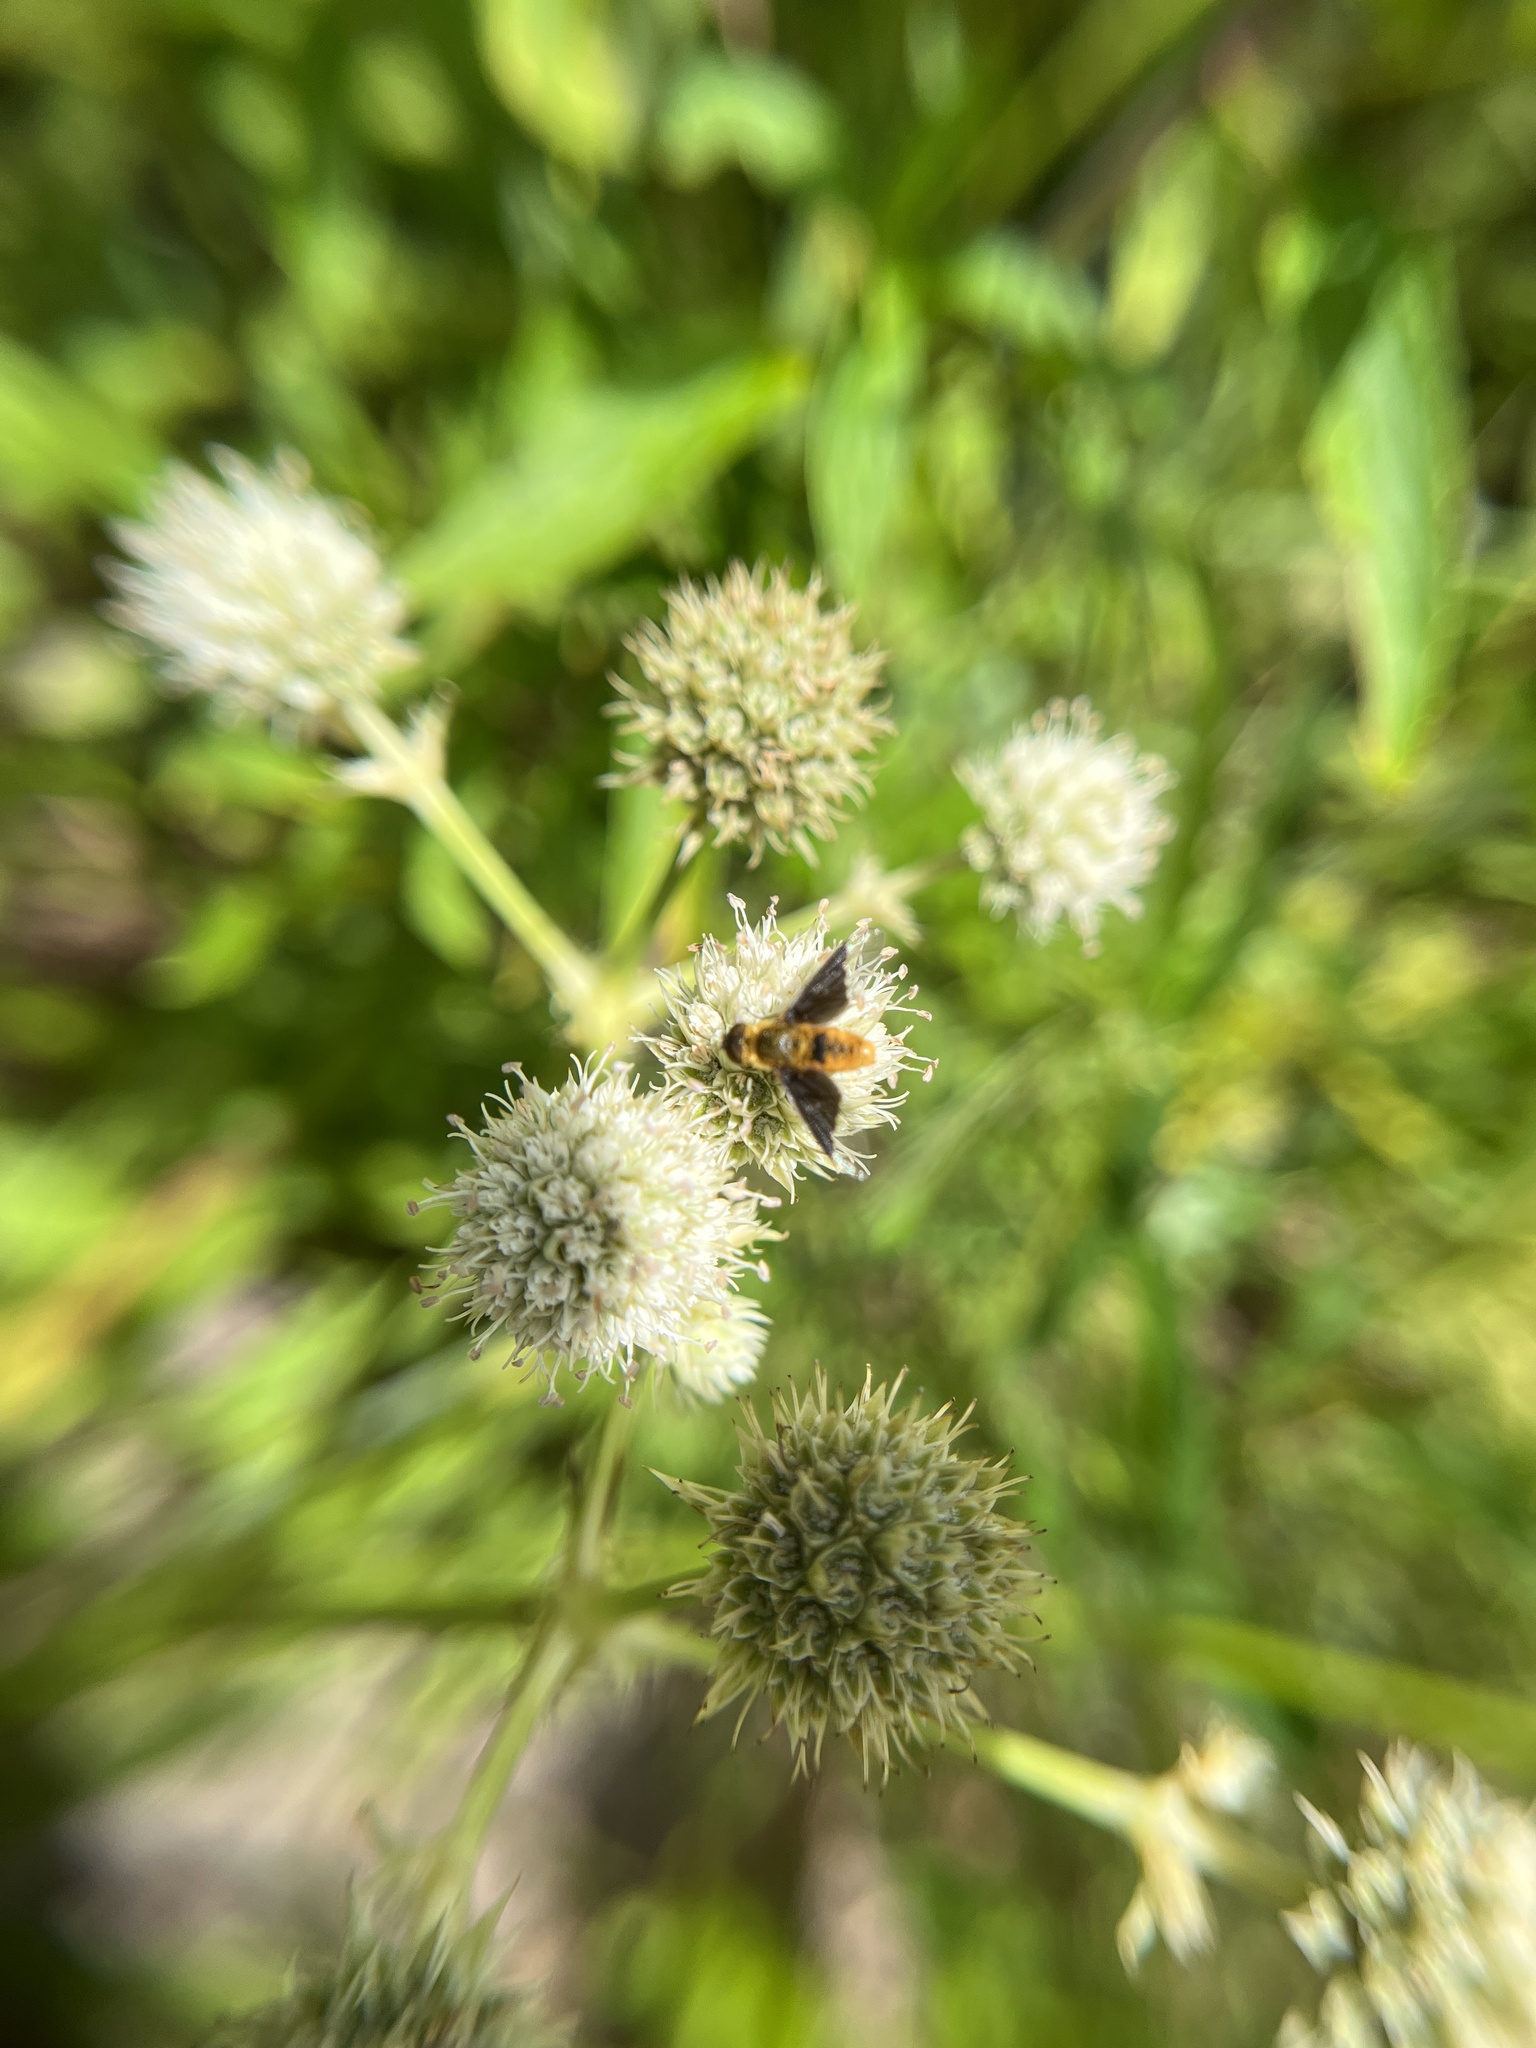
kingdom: Animalia
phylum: Arthropoda
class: Insecta
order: Diptera
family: Bombyliidae
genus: Chrysanthrax
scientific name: Chrysanthrax cypris
